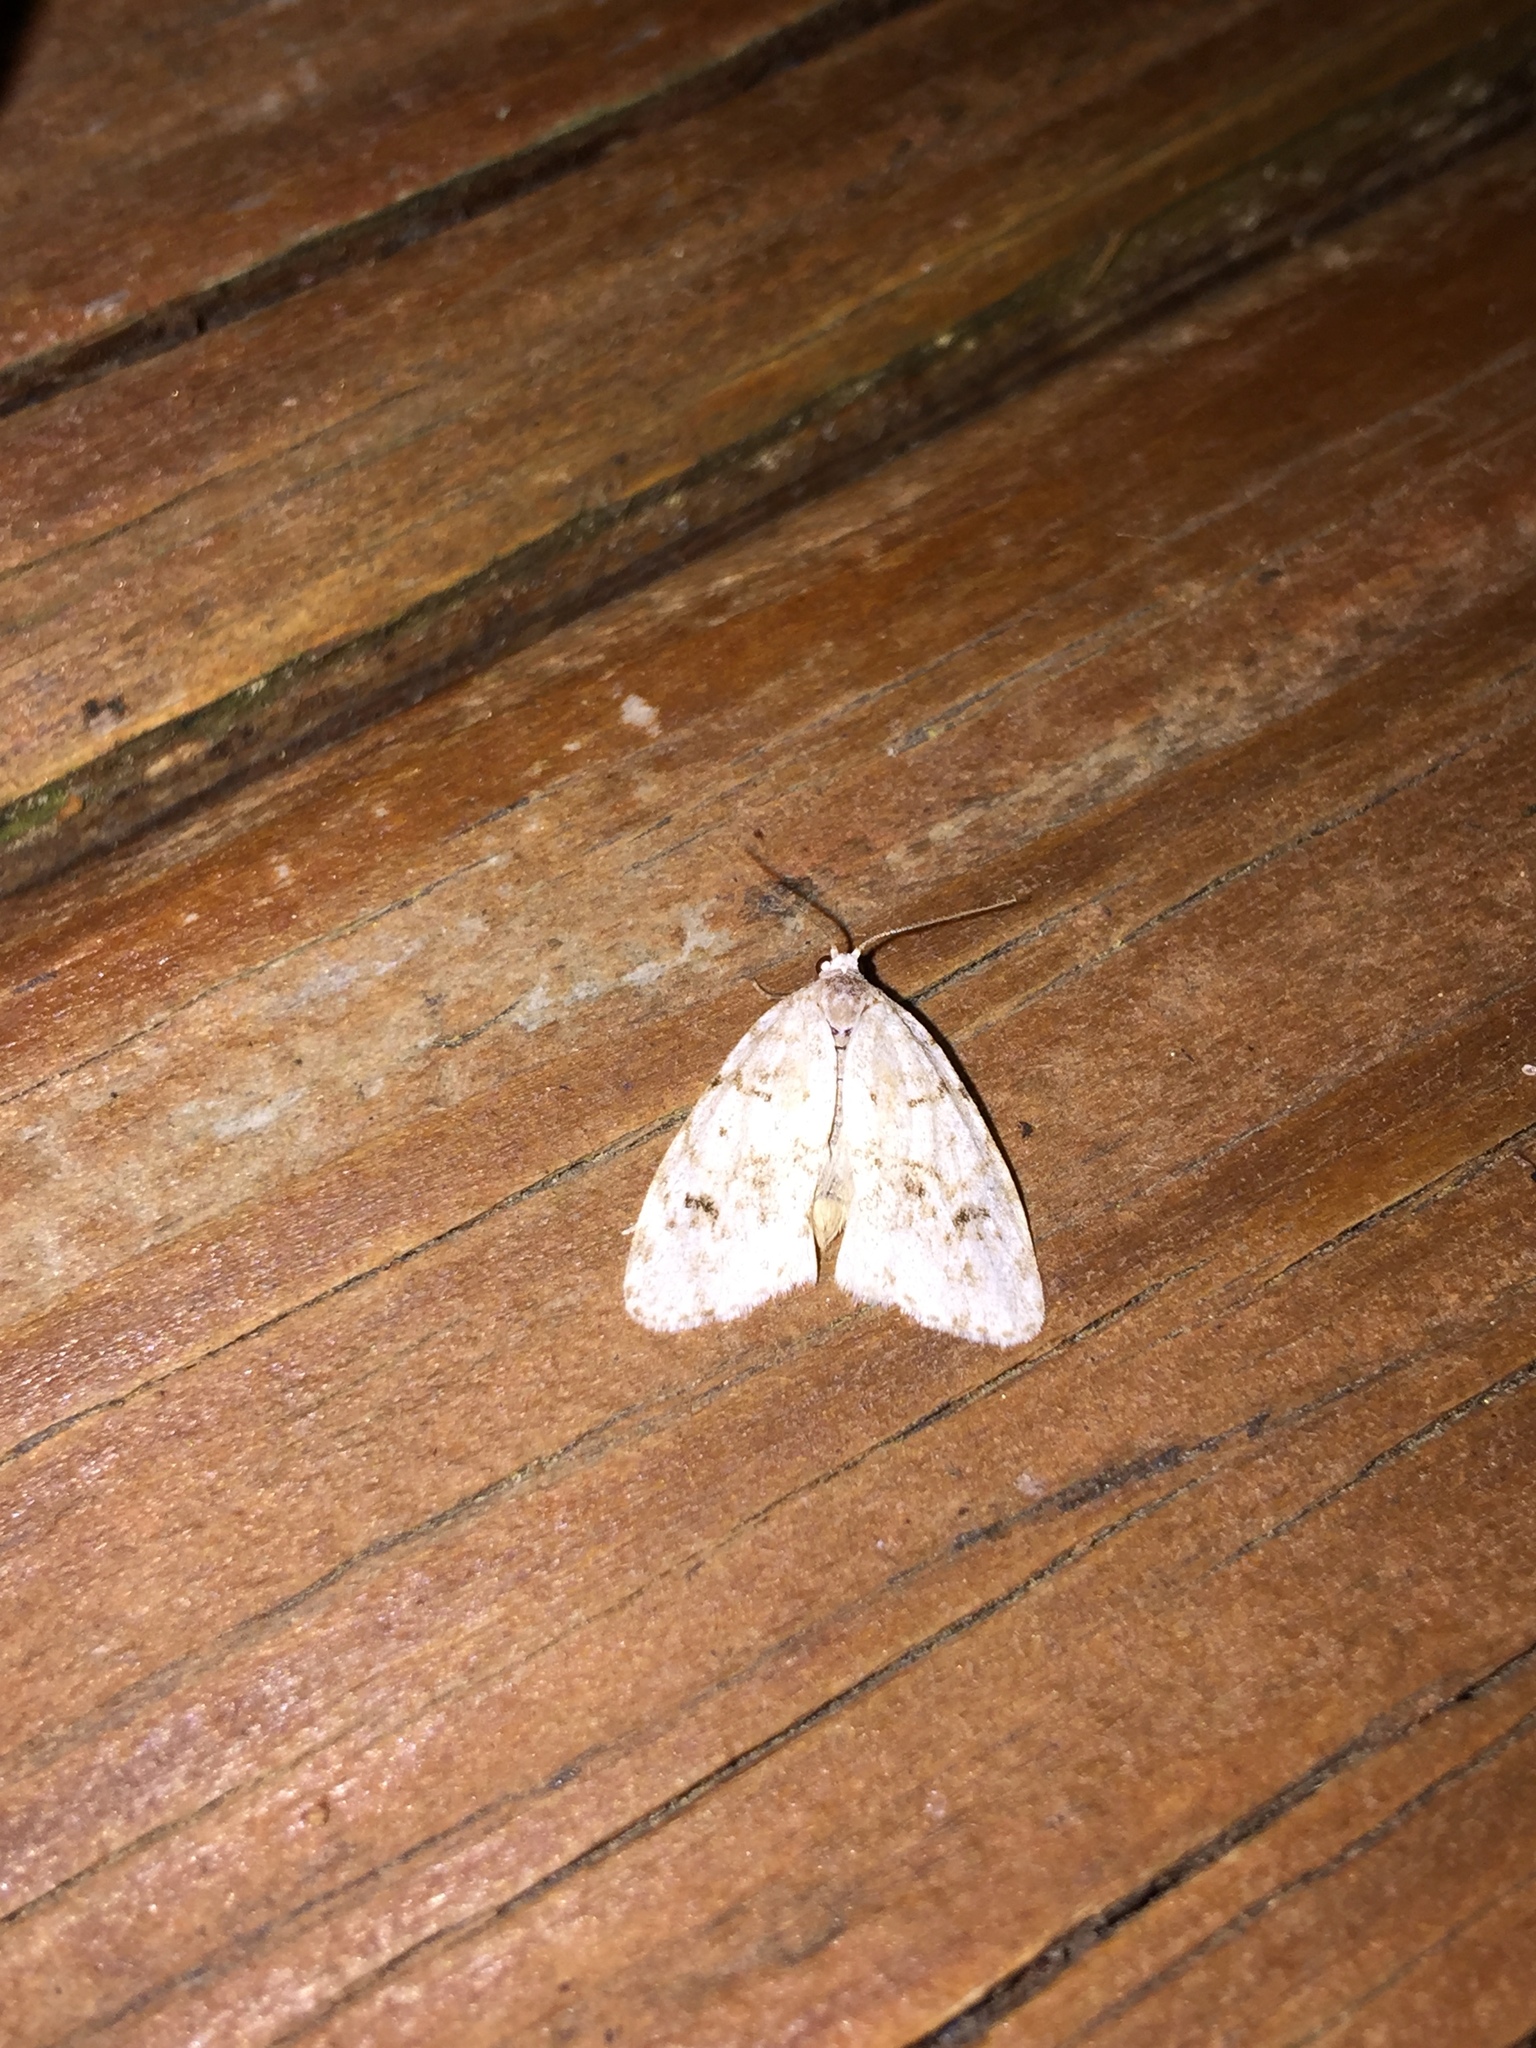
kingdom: Animalia
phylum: Arthropoda
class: Insecta
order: Lepidoptera
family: Erebidae
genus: Clemensia
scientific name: Clemensia albata
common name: Little white lichen moth
